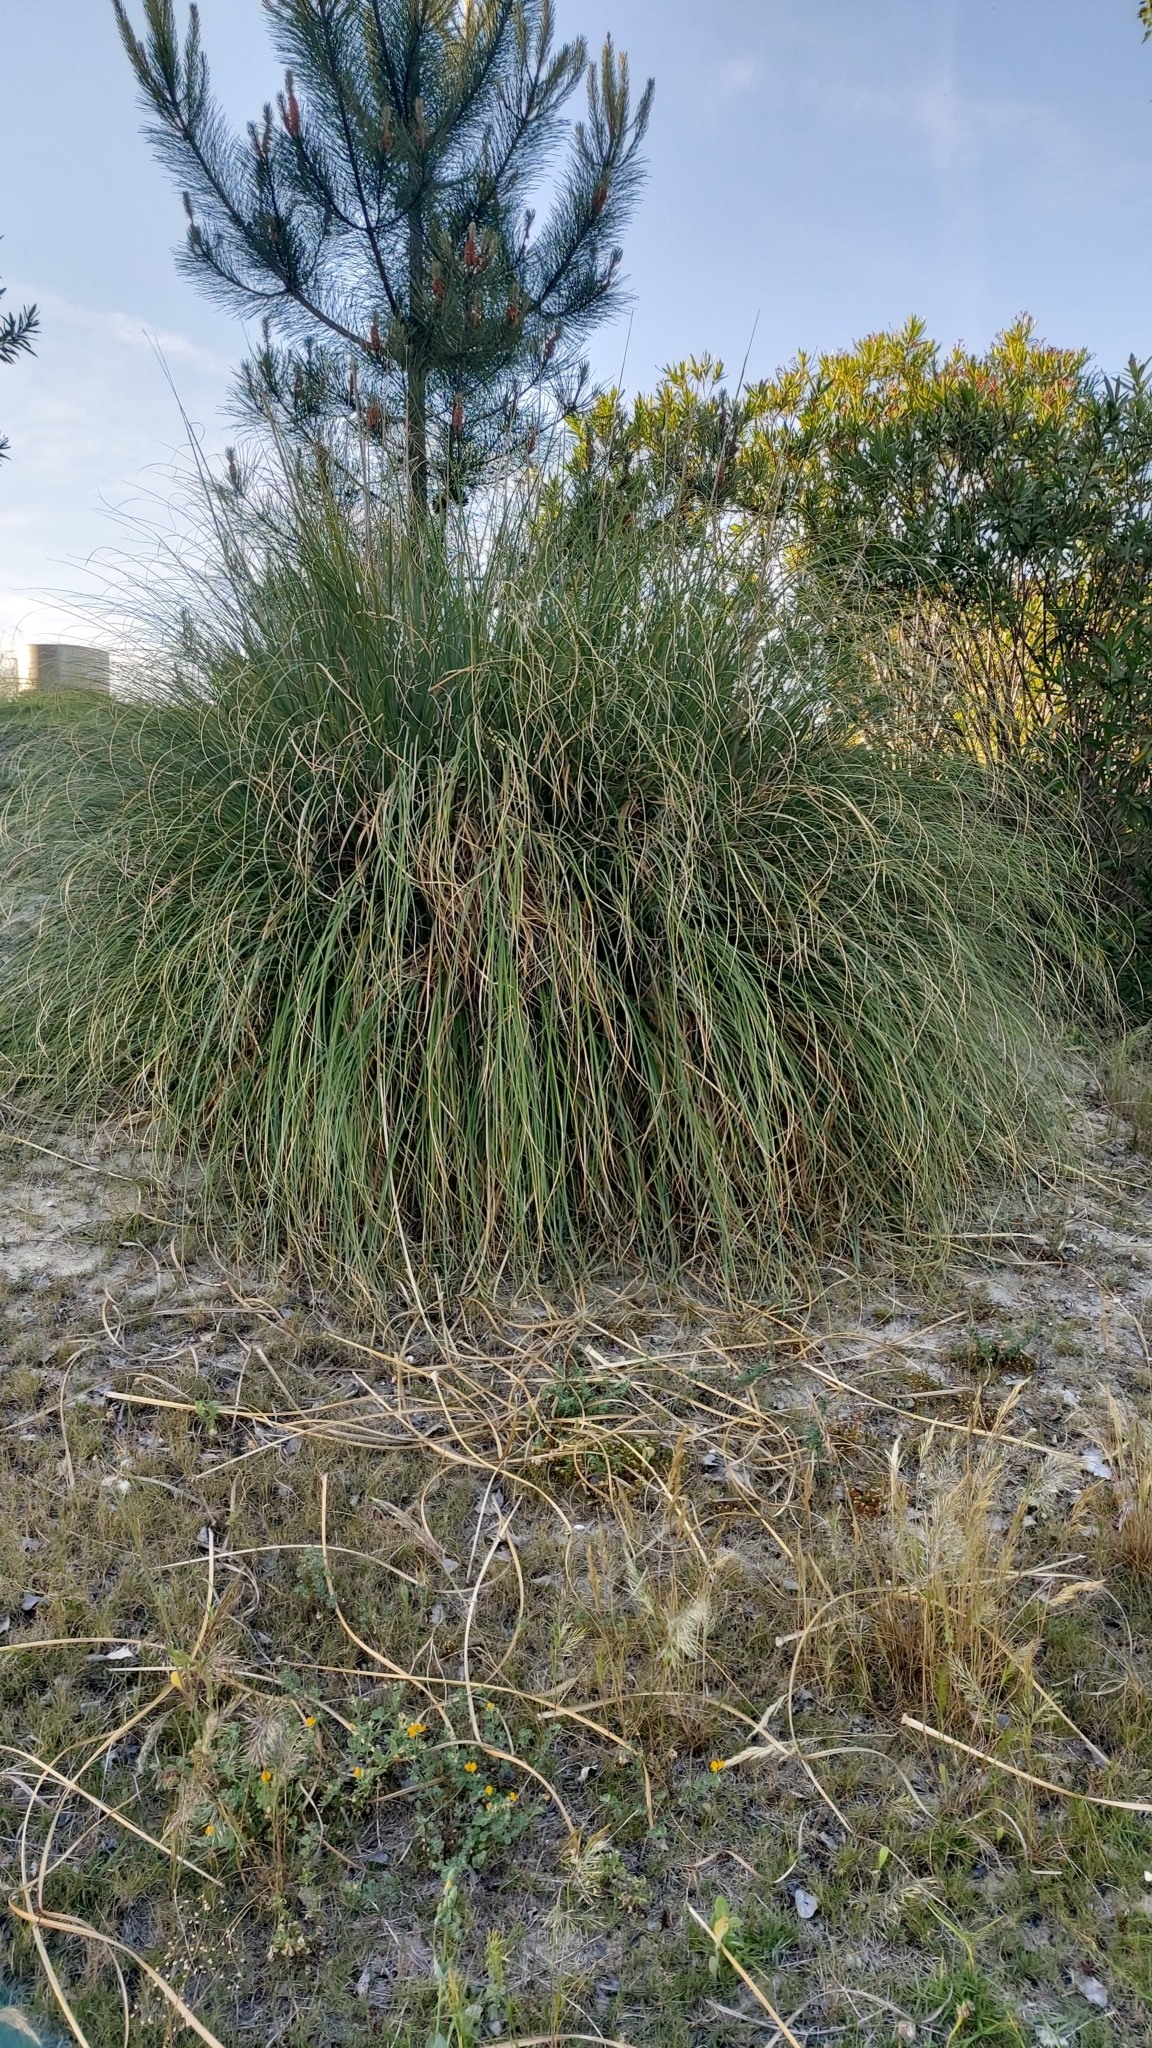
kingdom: Plantae
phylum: Tracheophyta
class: Liliopsida
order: Poales
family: Poaceae
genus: Cortaderia
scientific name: Cortaderia selloana
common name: Uruguayan pampas grass
